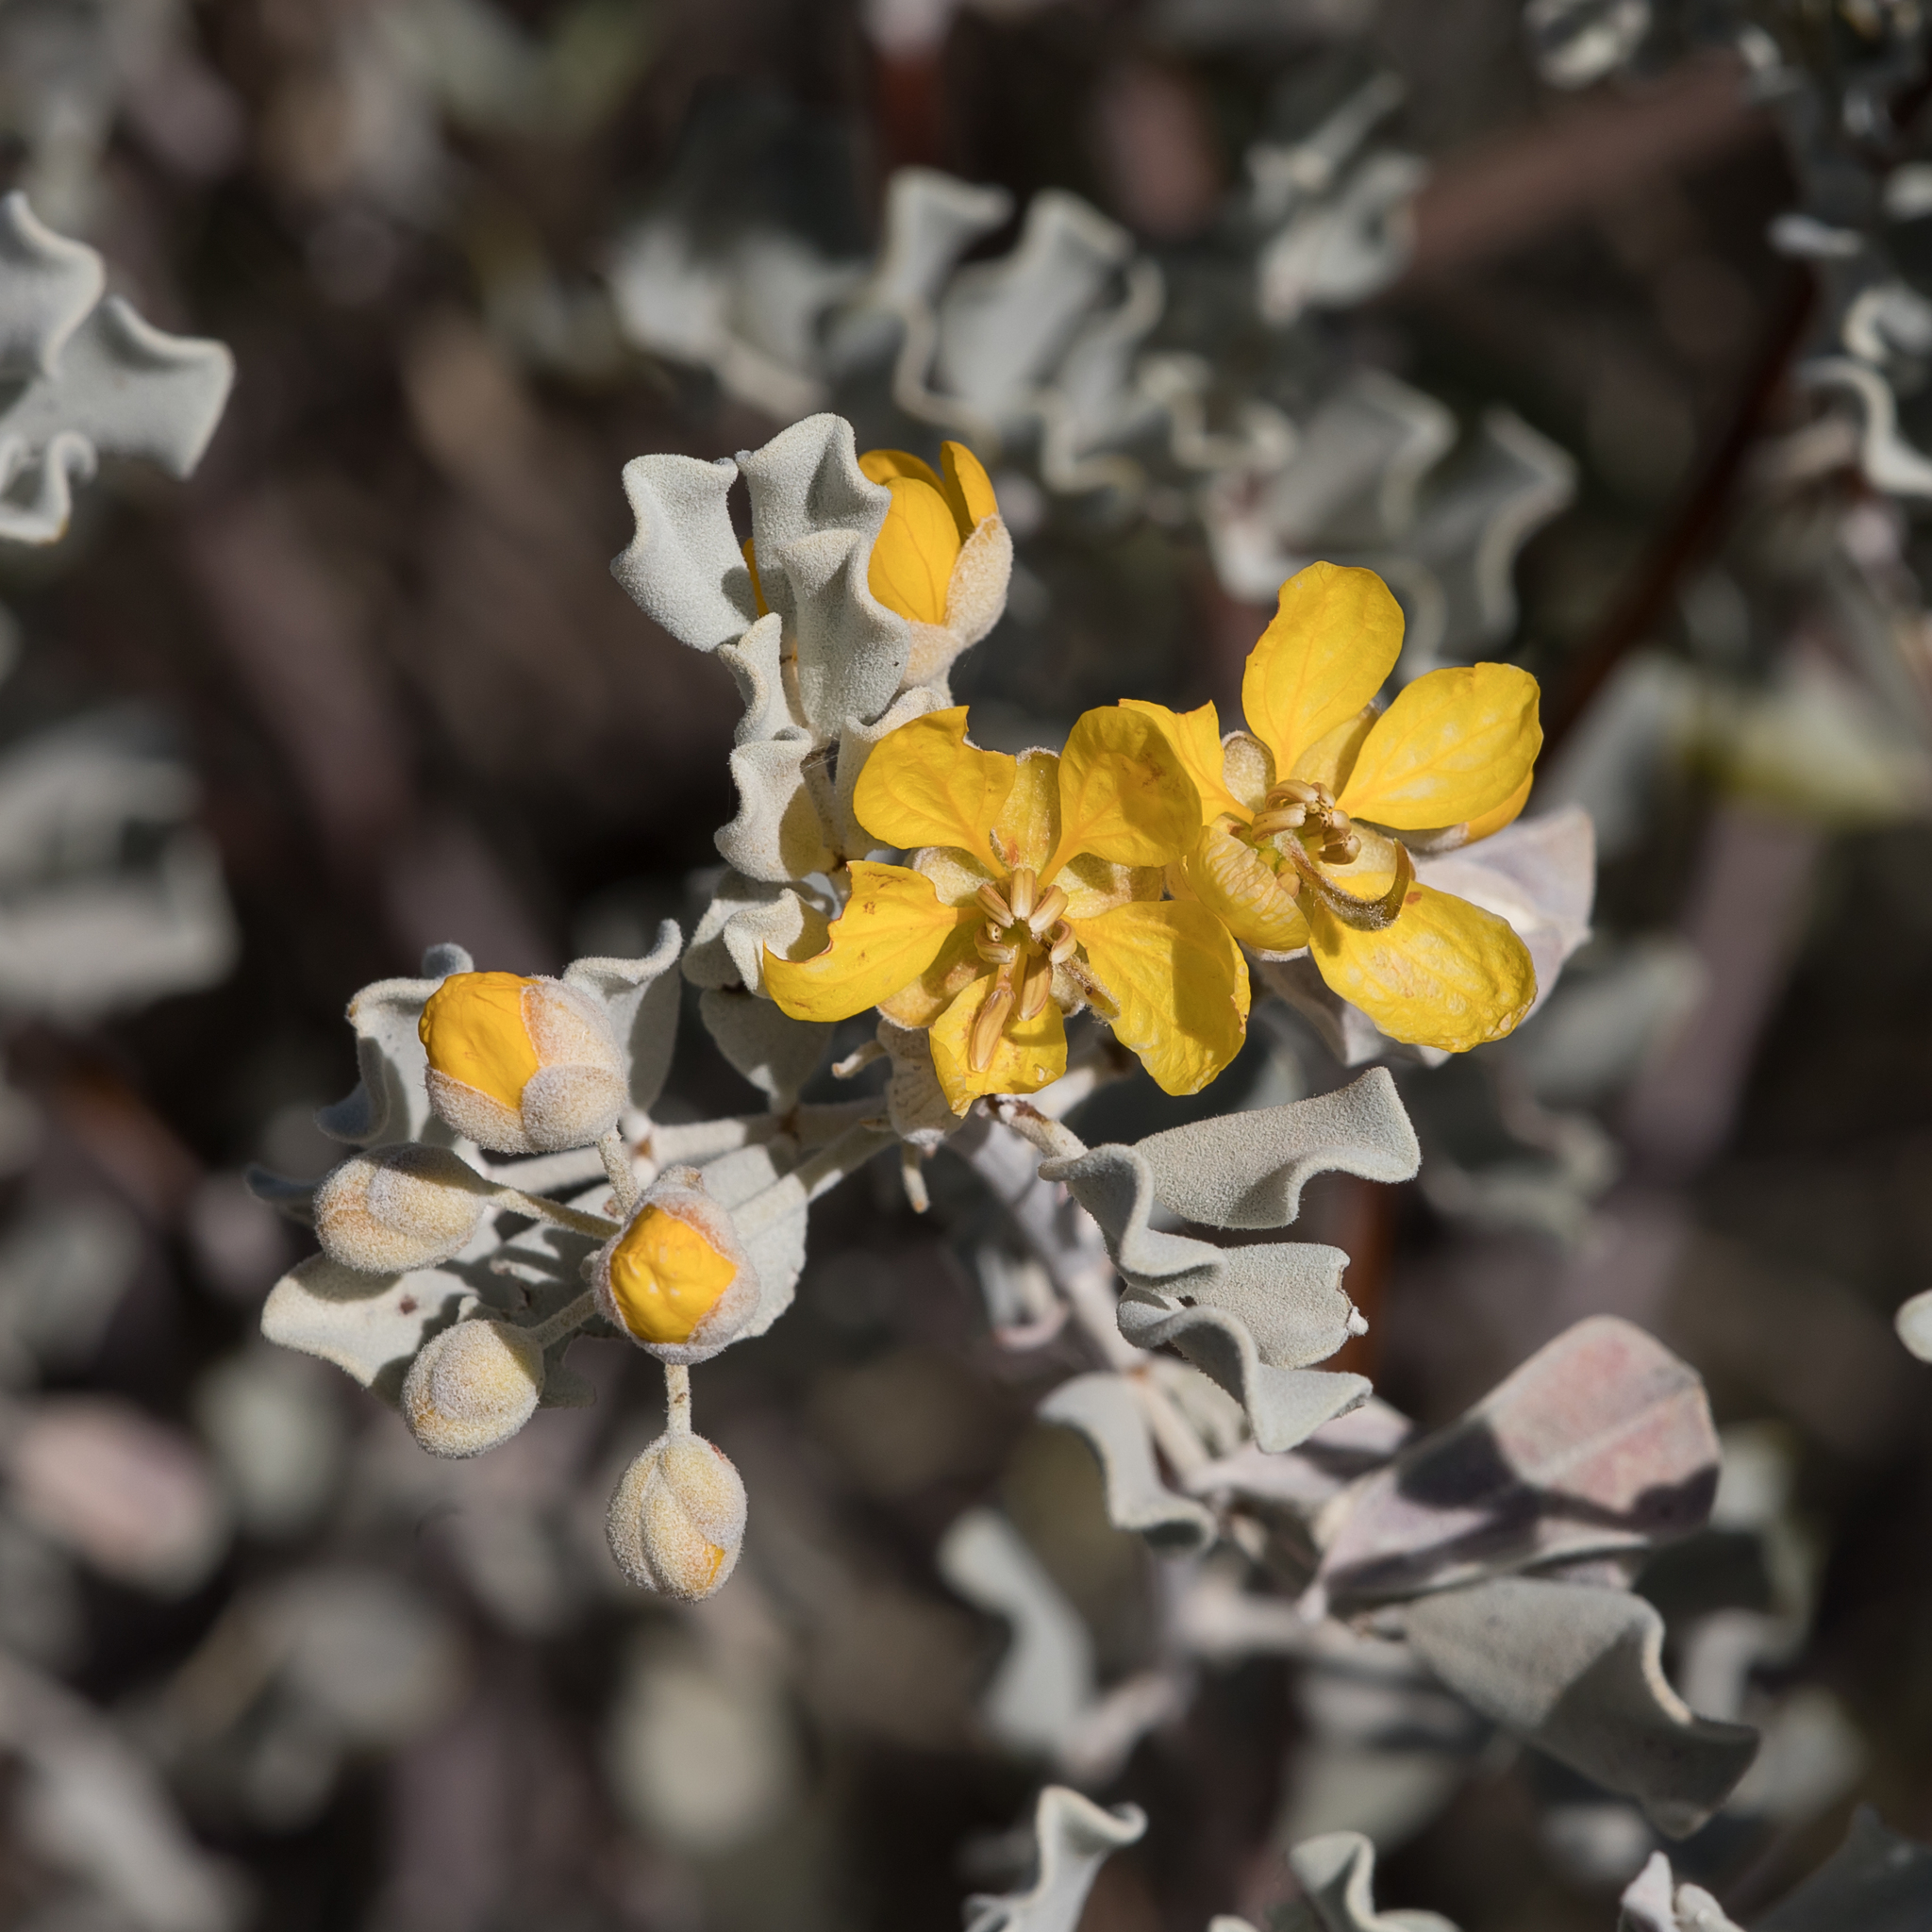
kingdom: Plantae
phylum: Tracheophyta
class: Magnoliopsida
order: Fabales
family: Fabaceae
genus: Senna
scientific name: Senna artemisioides
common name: Burnt-leaved acacia
